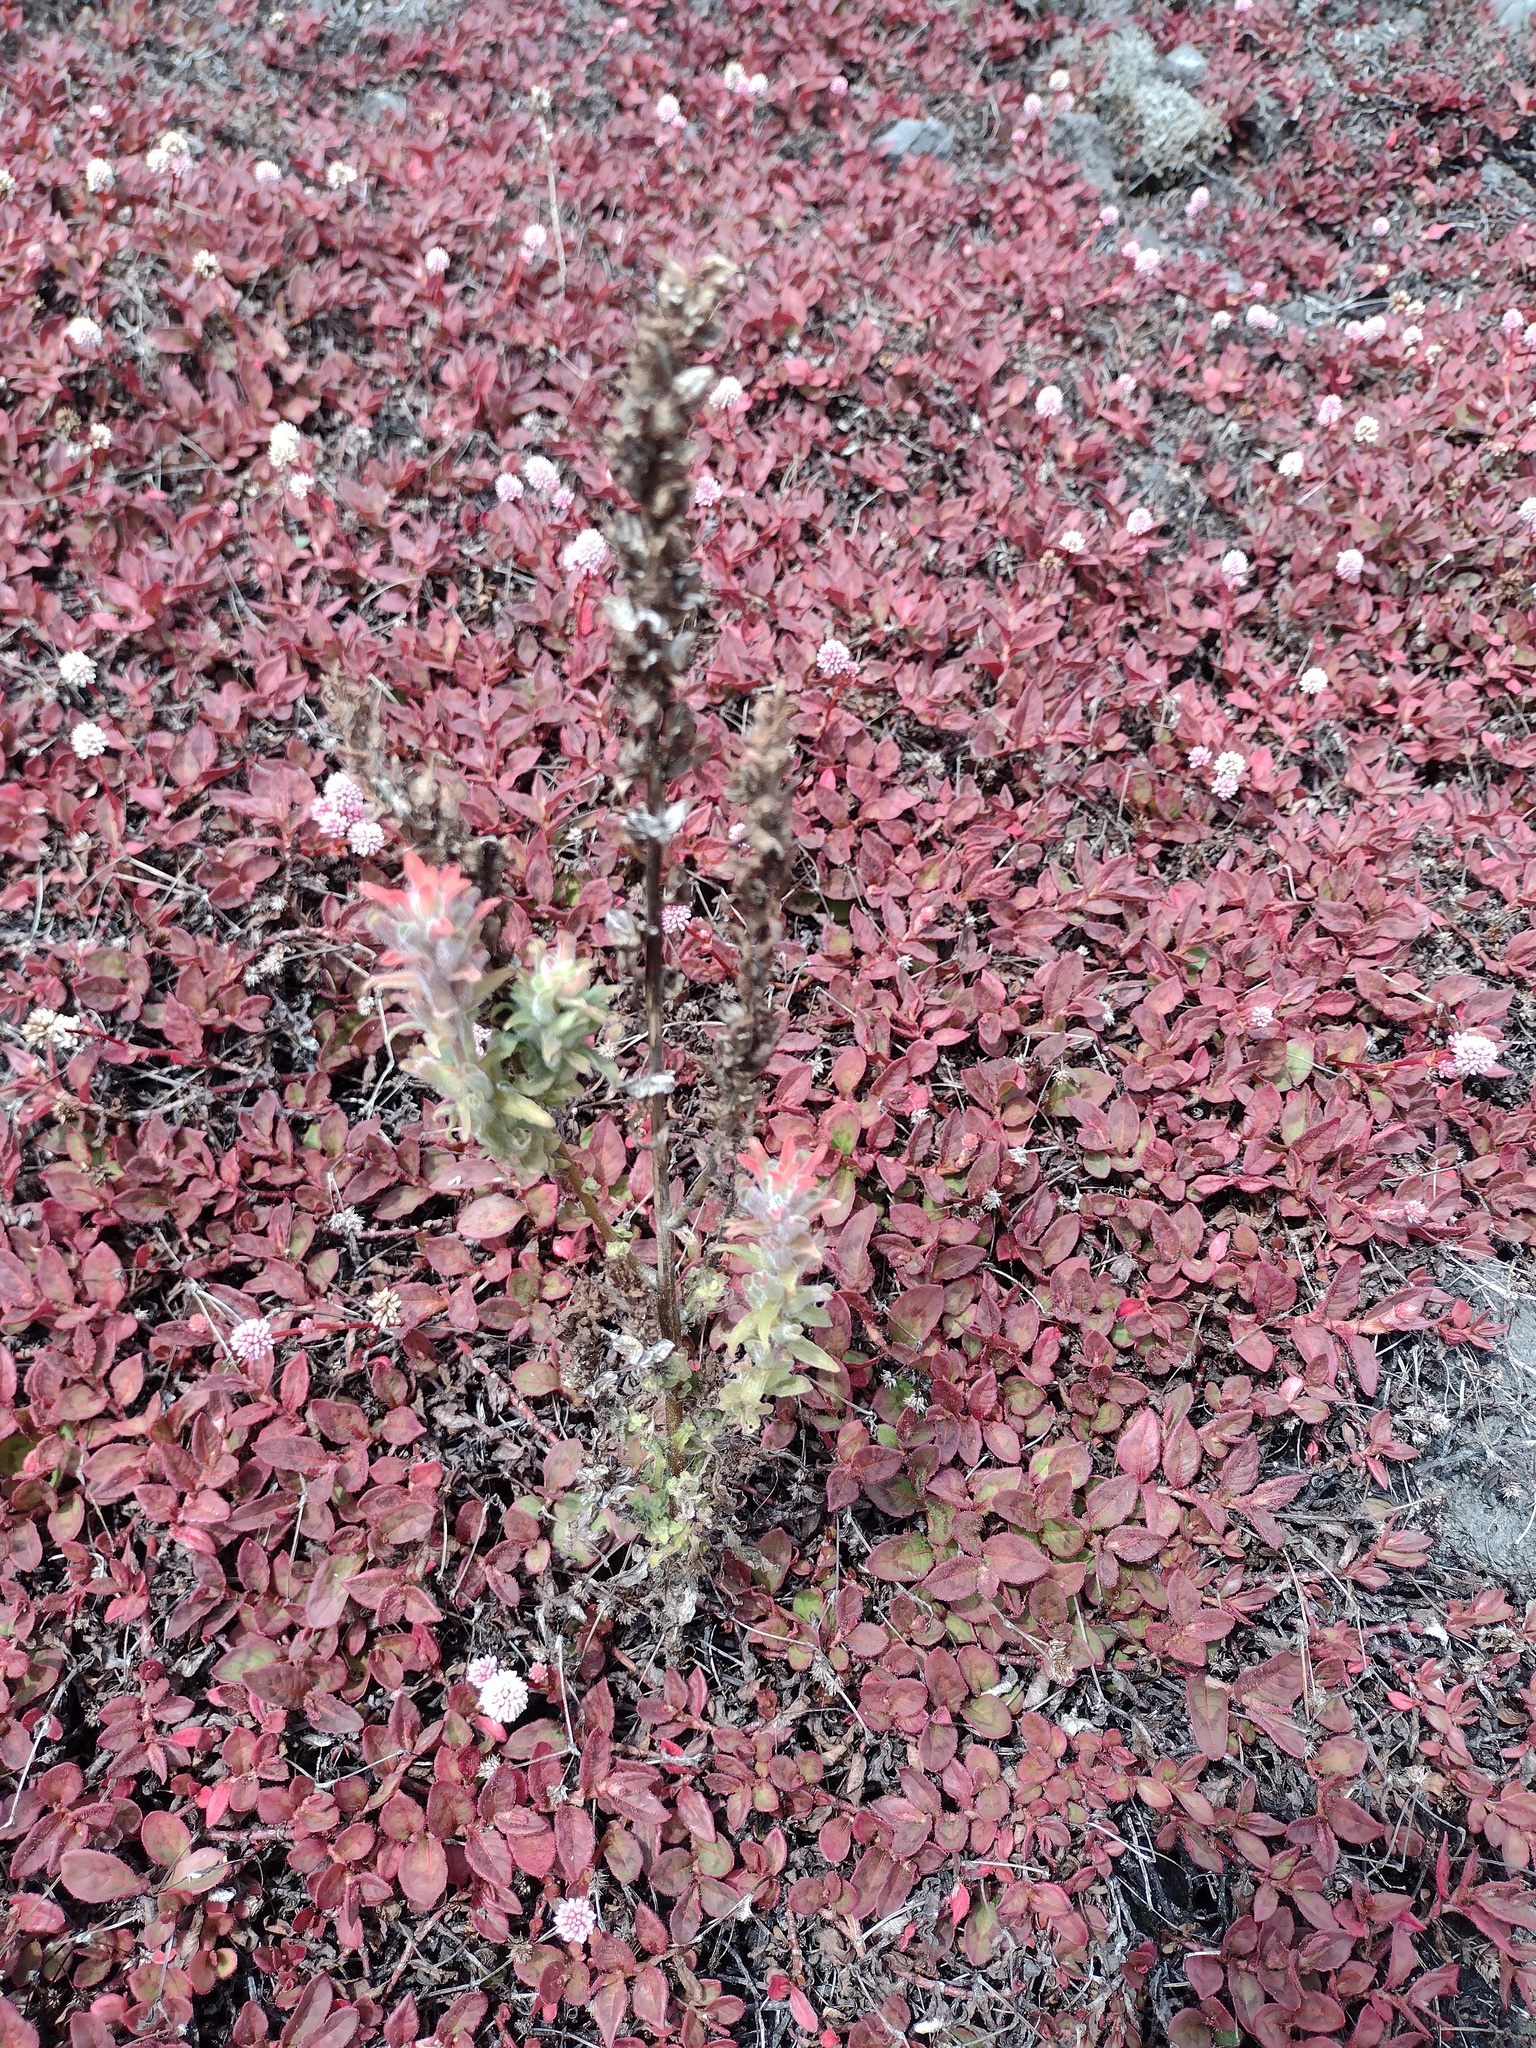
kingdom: Plantae
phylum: Tracheophyta
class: Magnoliopsida
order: Lamiales
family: Orobanchaceae
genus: Castilleja
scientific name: Castilleja arvensis
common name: Indian paintbrush
